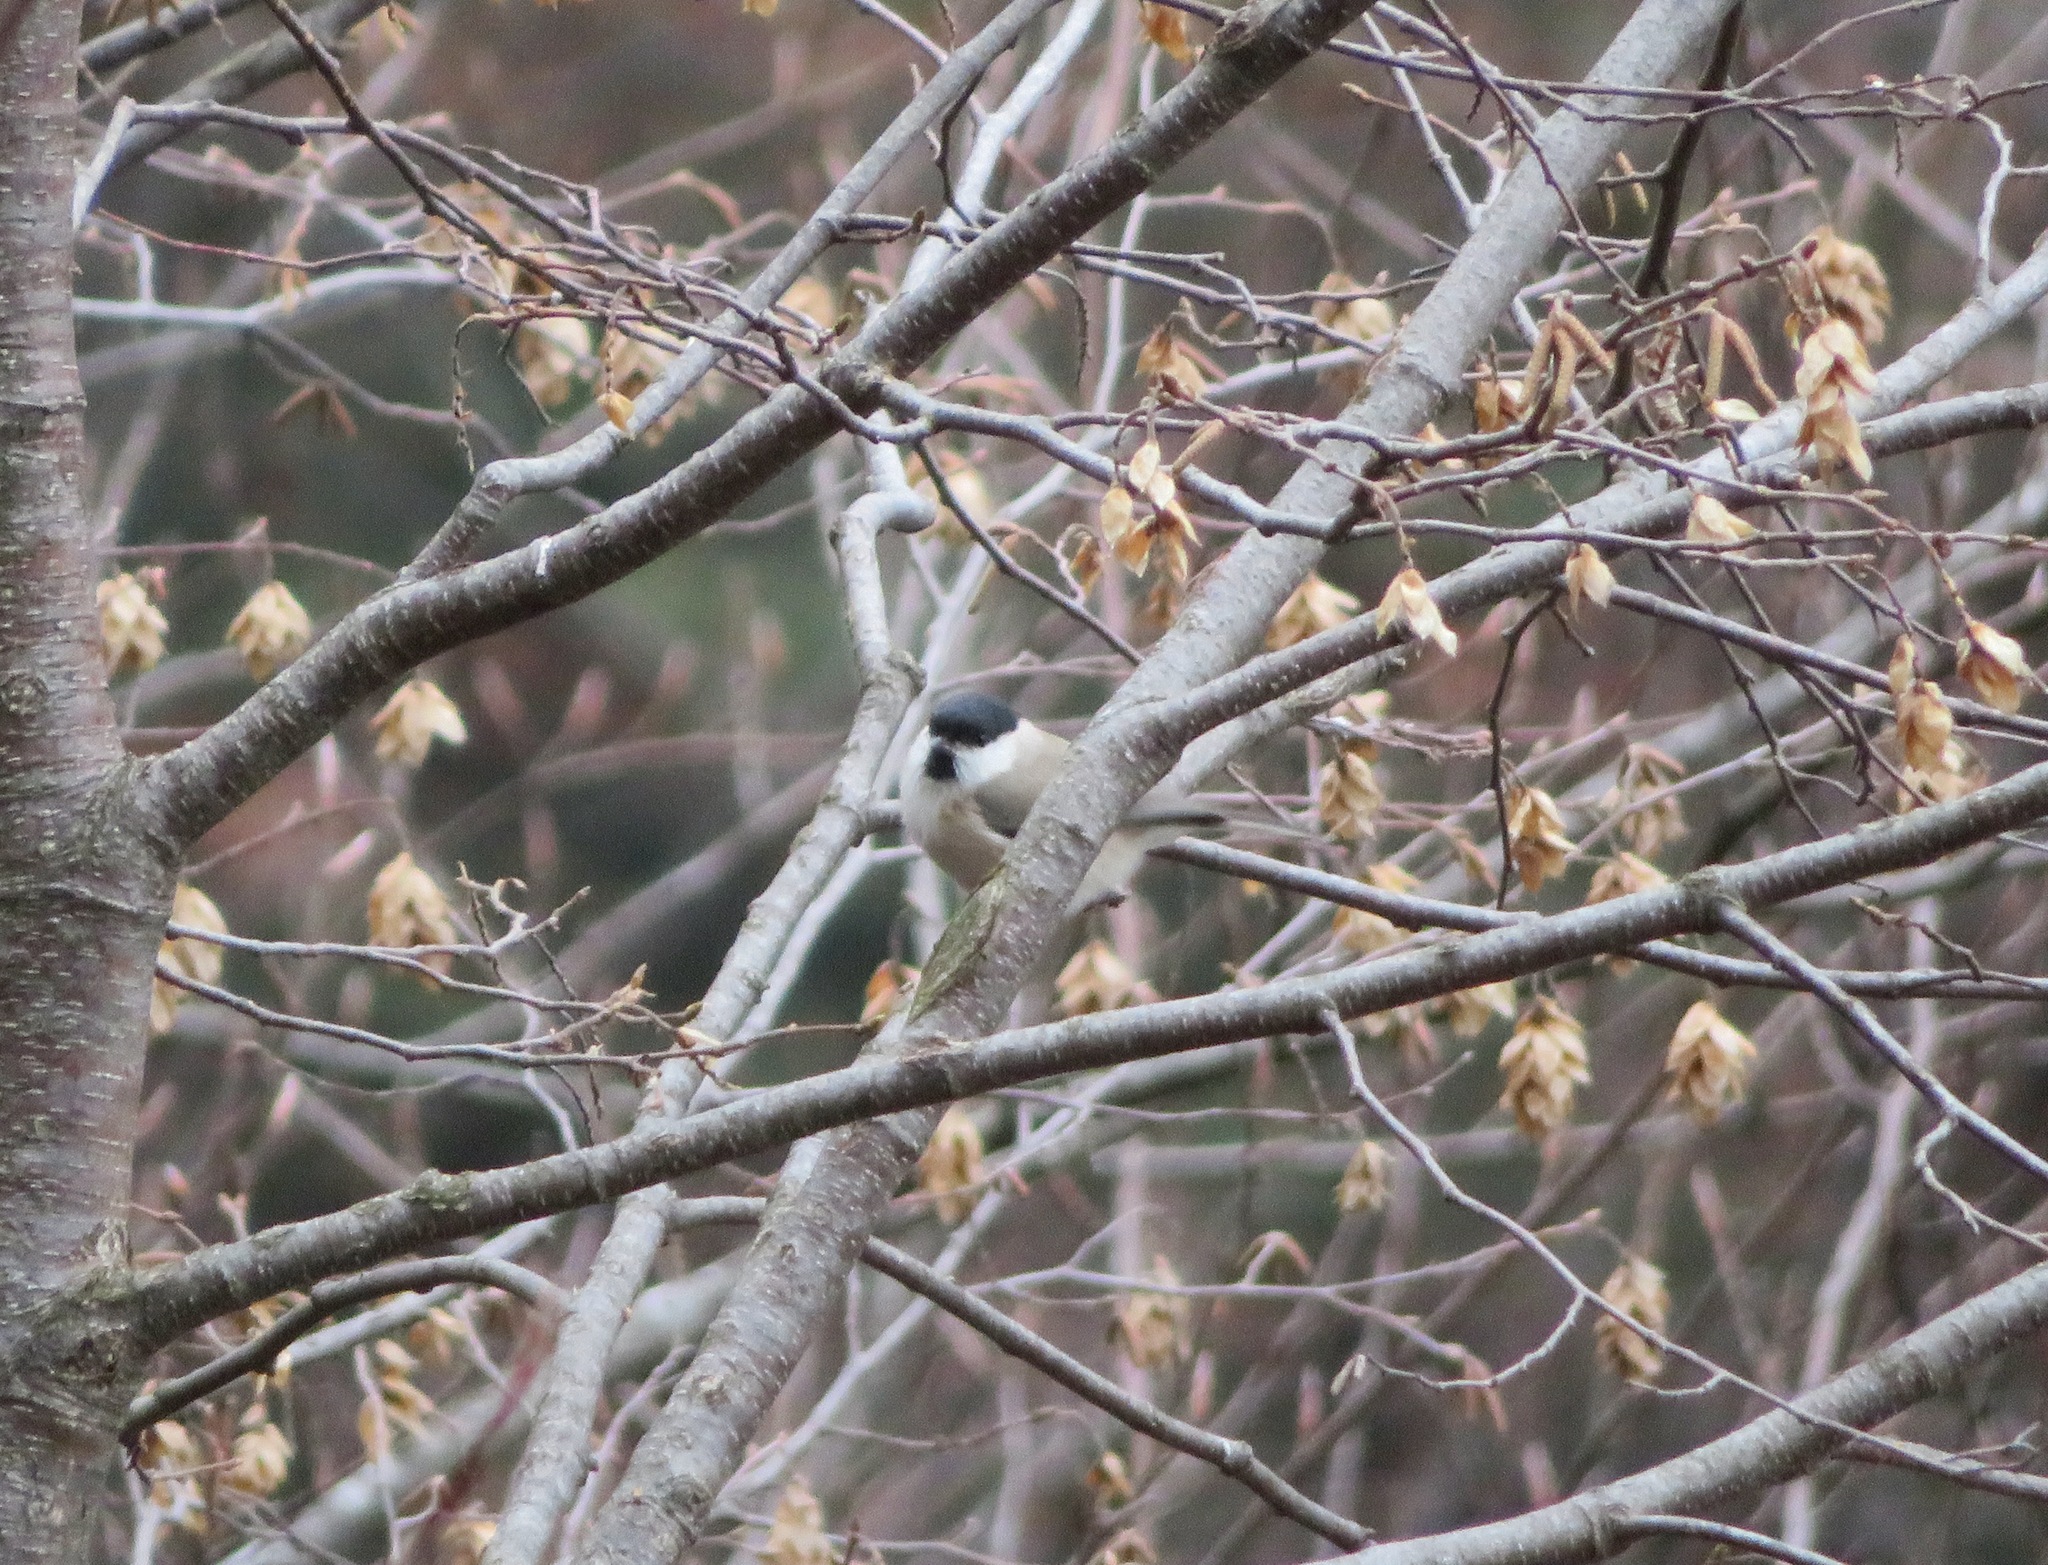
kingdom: Animalia
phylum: Chordata
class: Aves
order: Passeriformes
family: Paridae
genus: Poecile
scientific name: Poecile palustris
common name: Marsh tit
